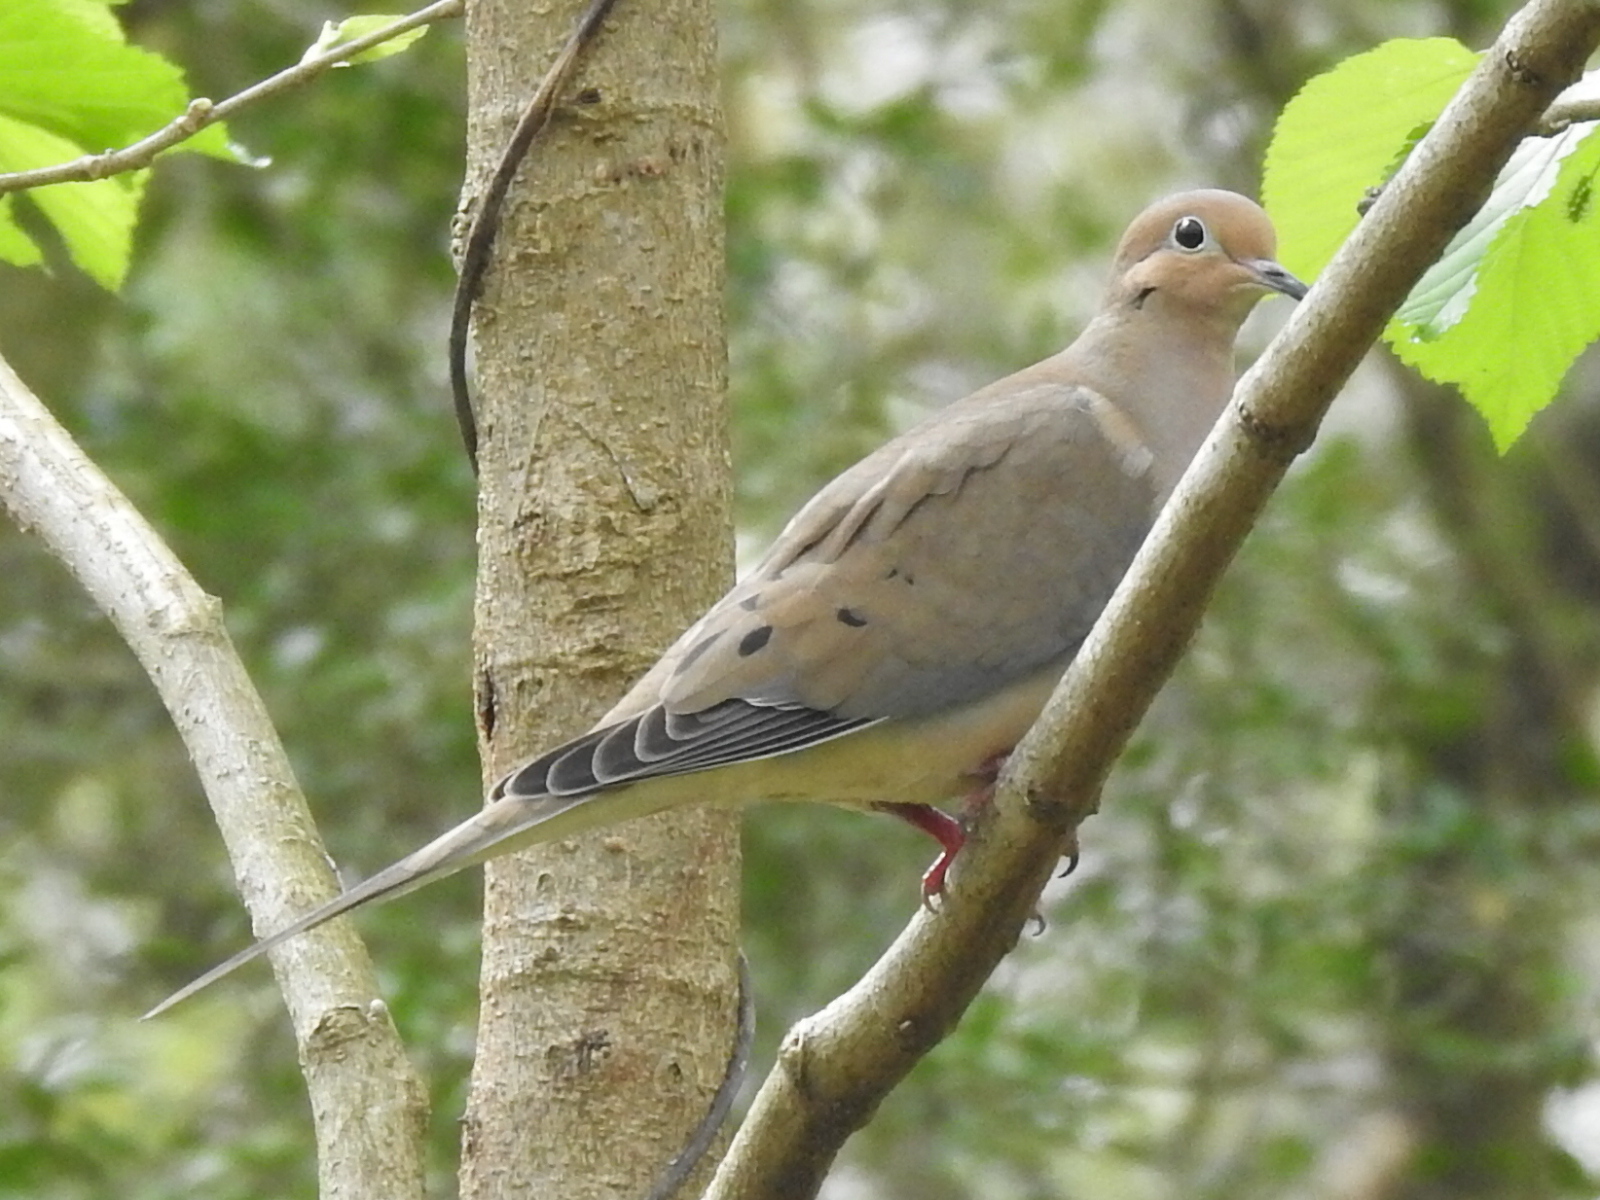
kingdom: Animalia
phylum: Chordata
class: Aves
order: Columbiformes
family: Columbidae
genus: Zenaida
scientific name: Zenaida macroura
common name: Mourning dove
